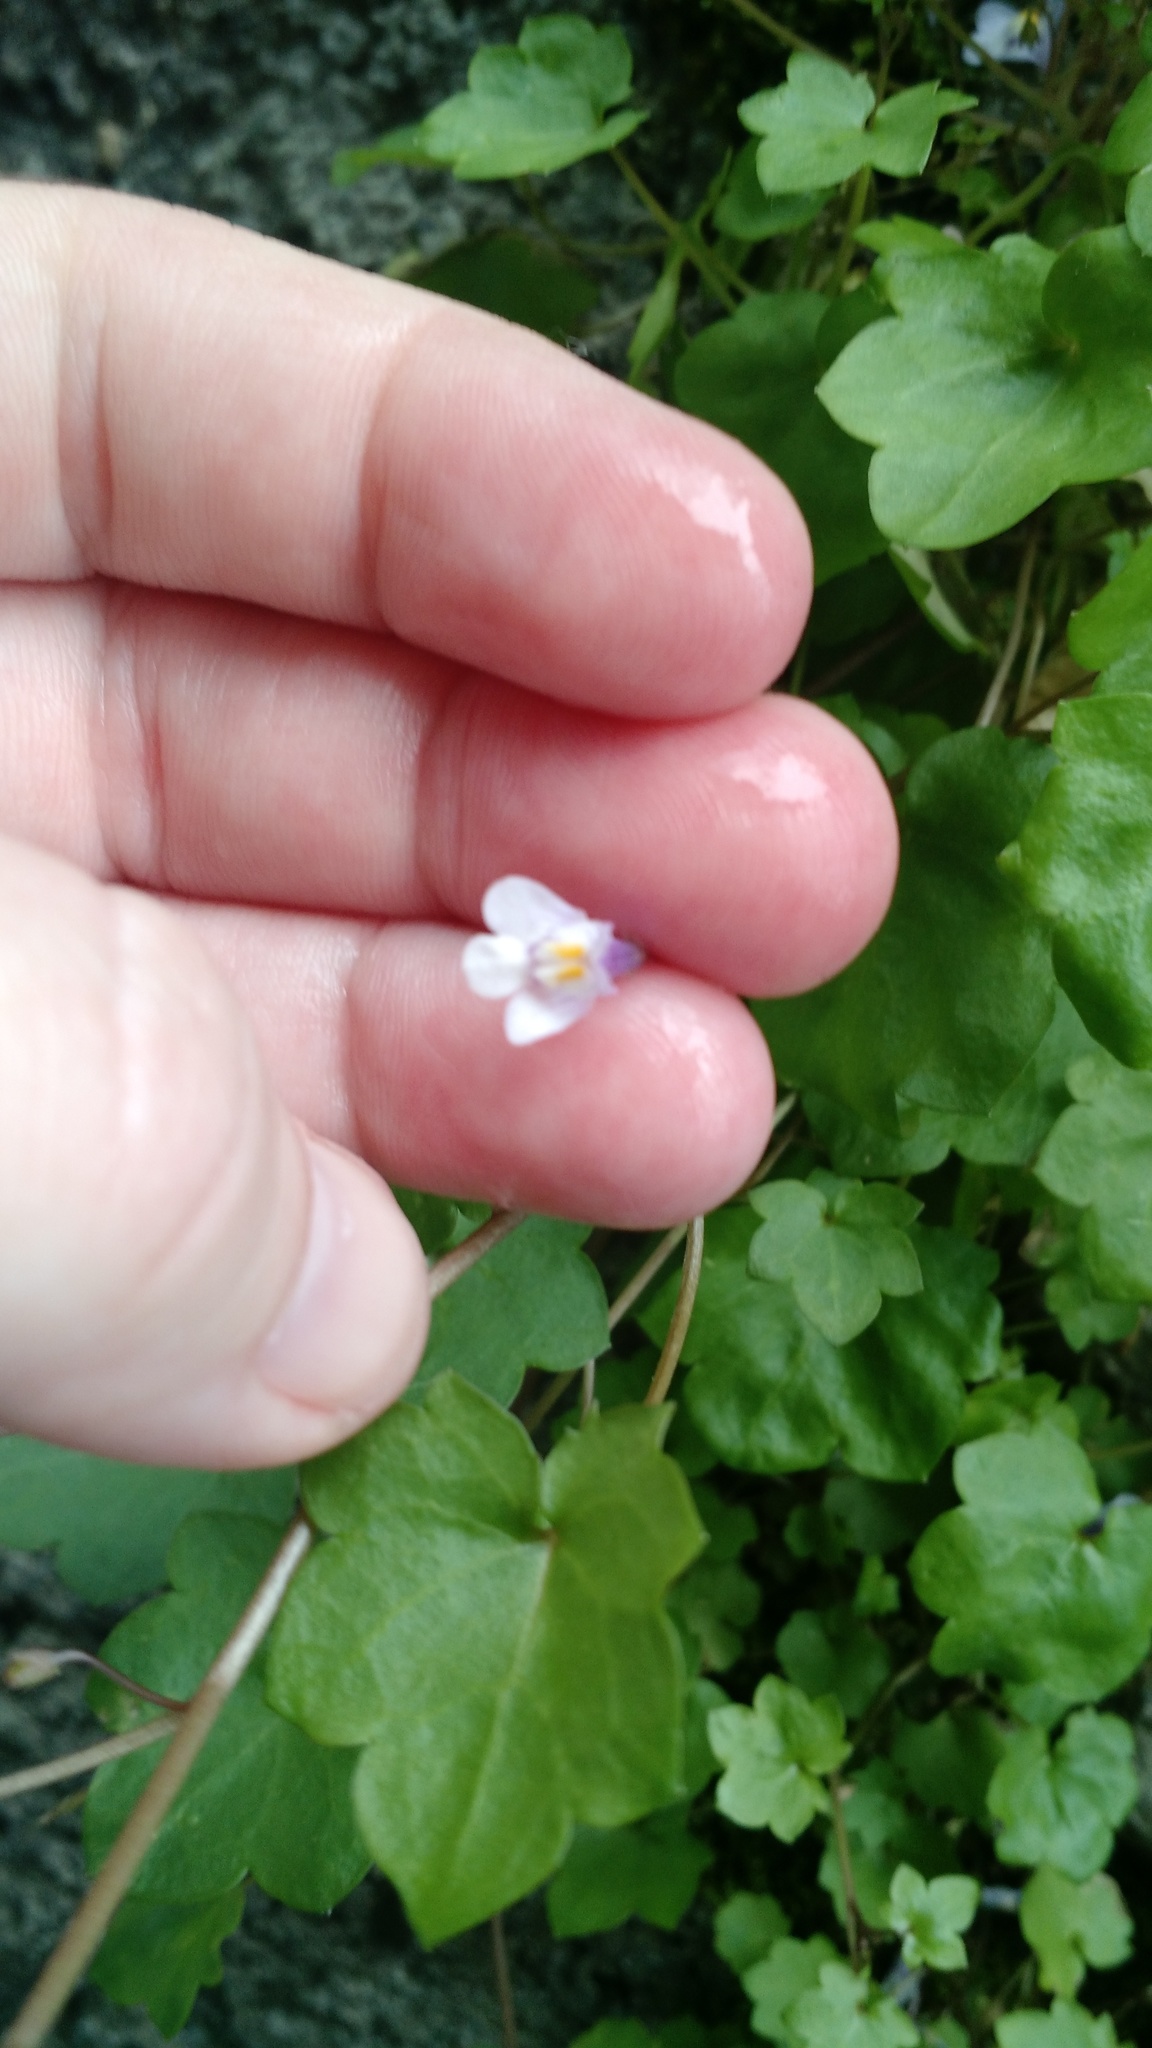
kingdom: Plantae
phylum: Tracheophyta
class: Magnoliopsida
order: Lamiales
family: Plantaginaceae
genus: Cymbalaria
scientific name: Cymbalaria muralis
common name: Ivy-leaved toadflax
